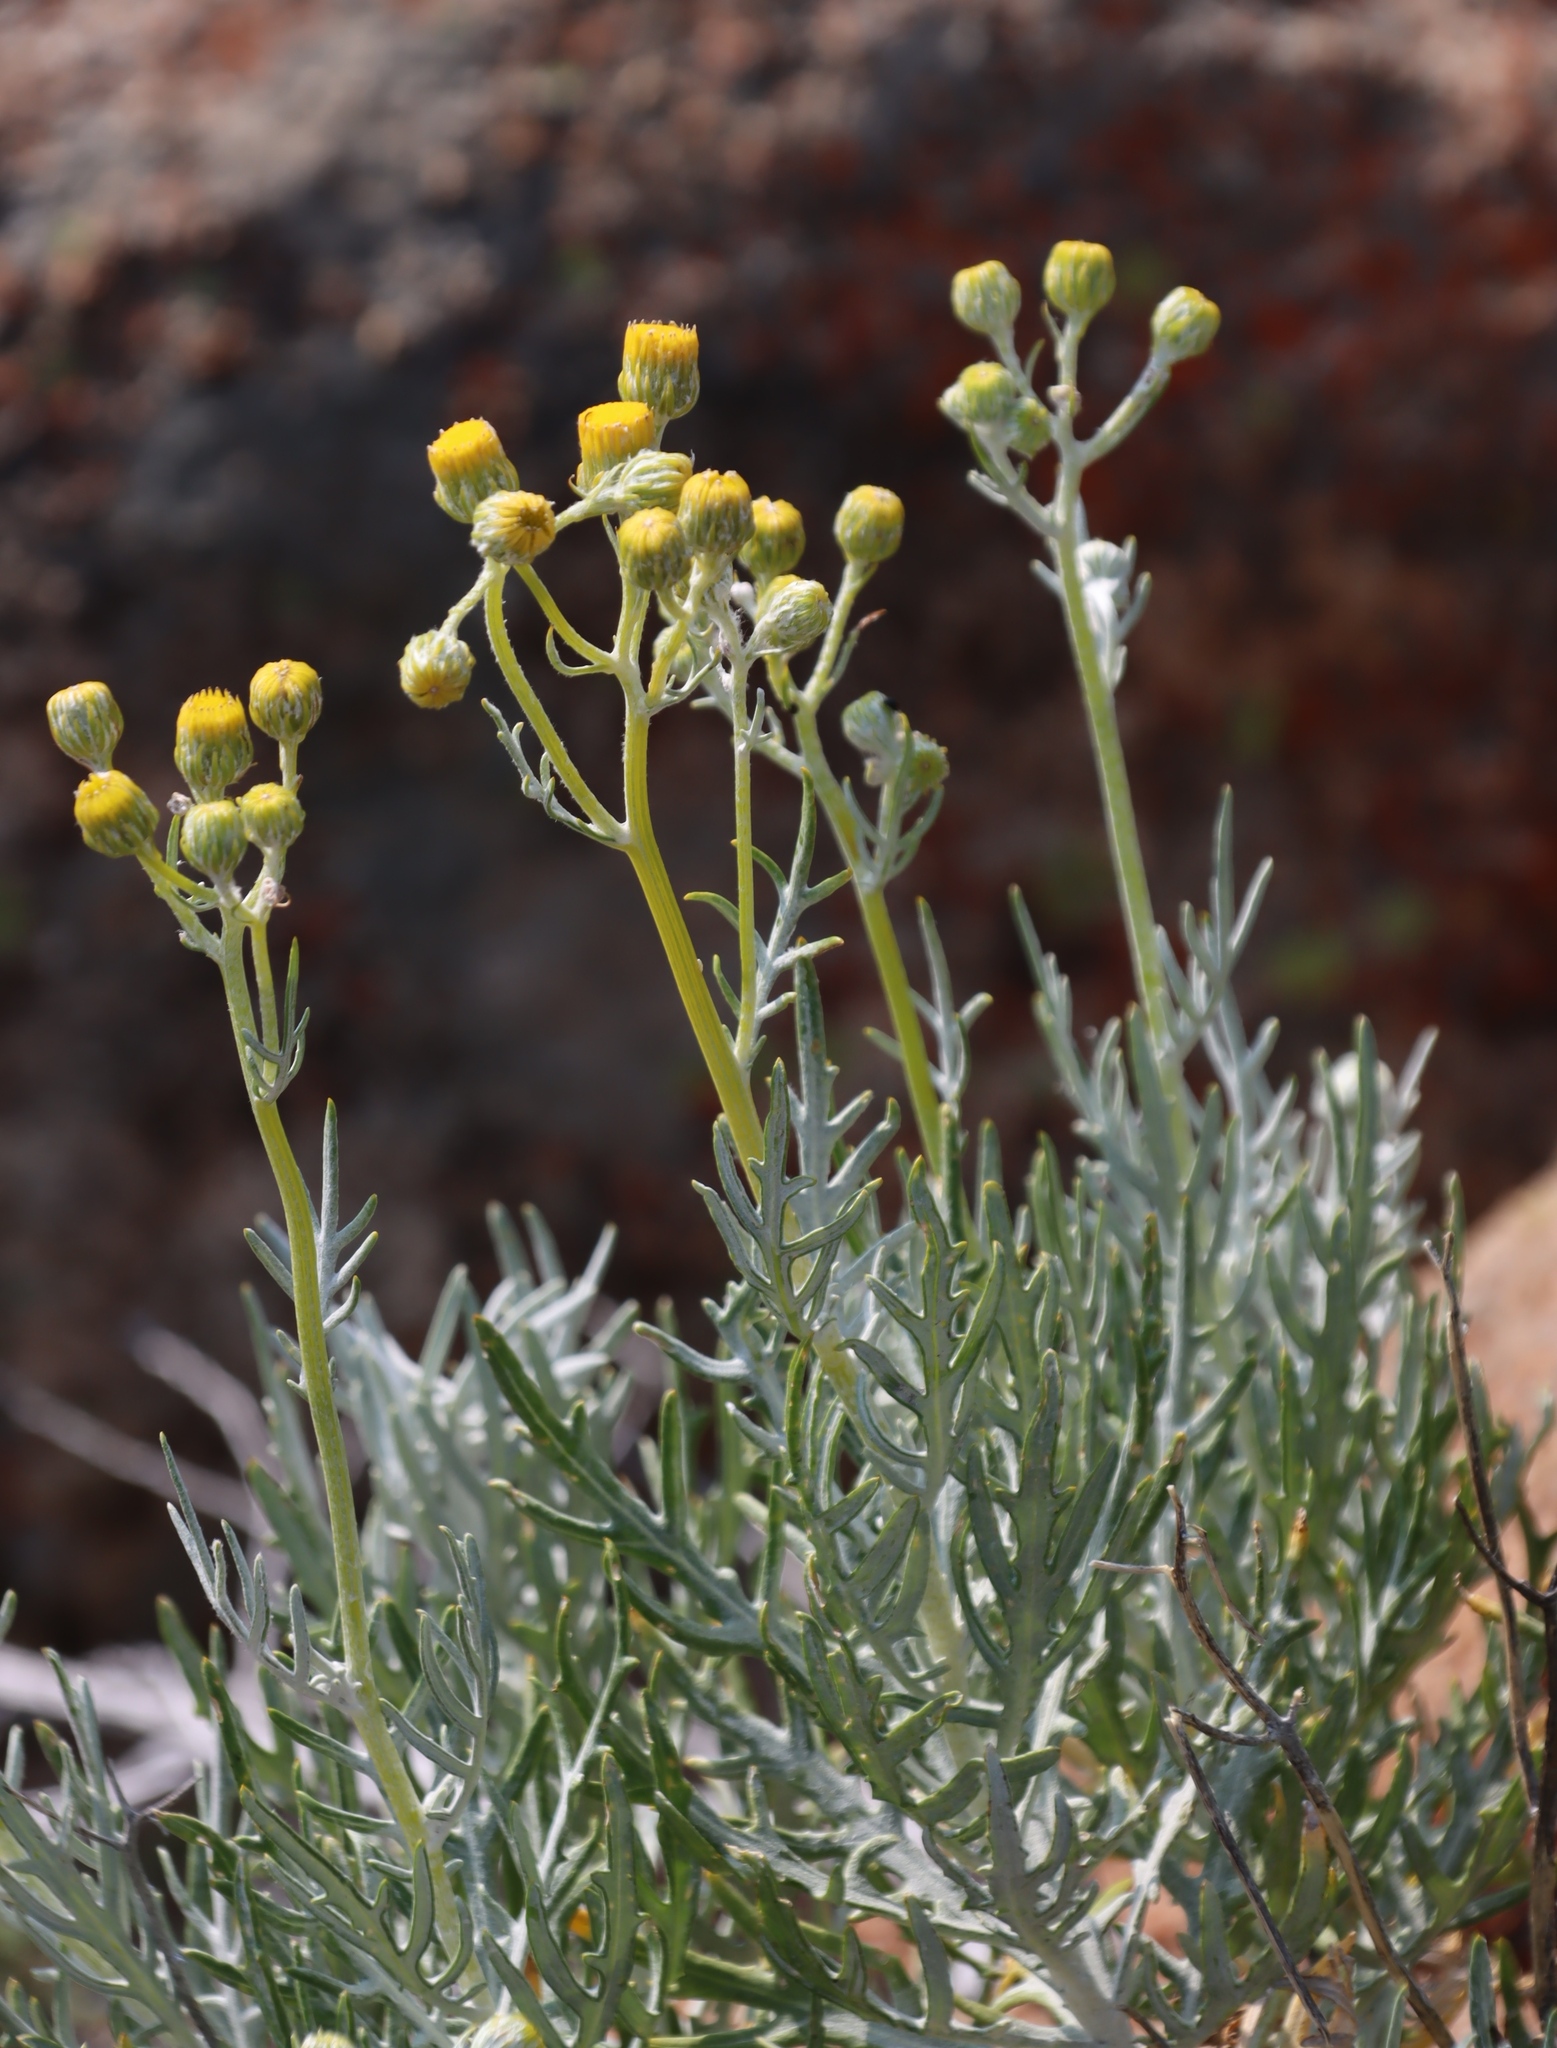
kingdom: Plantae
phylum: Tracheophyta
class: Magnoliopsida
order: Asterales
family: Asteraceae
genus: Senecio
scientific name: Senecio cinerascens
